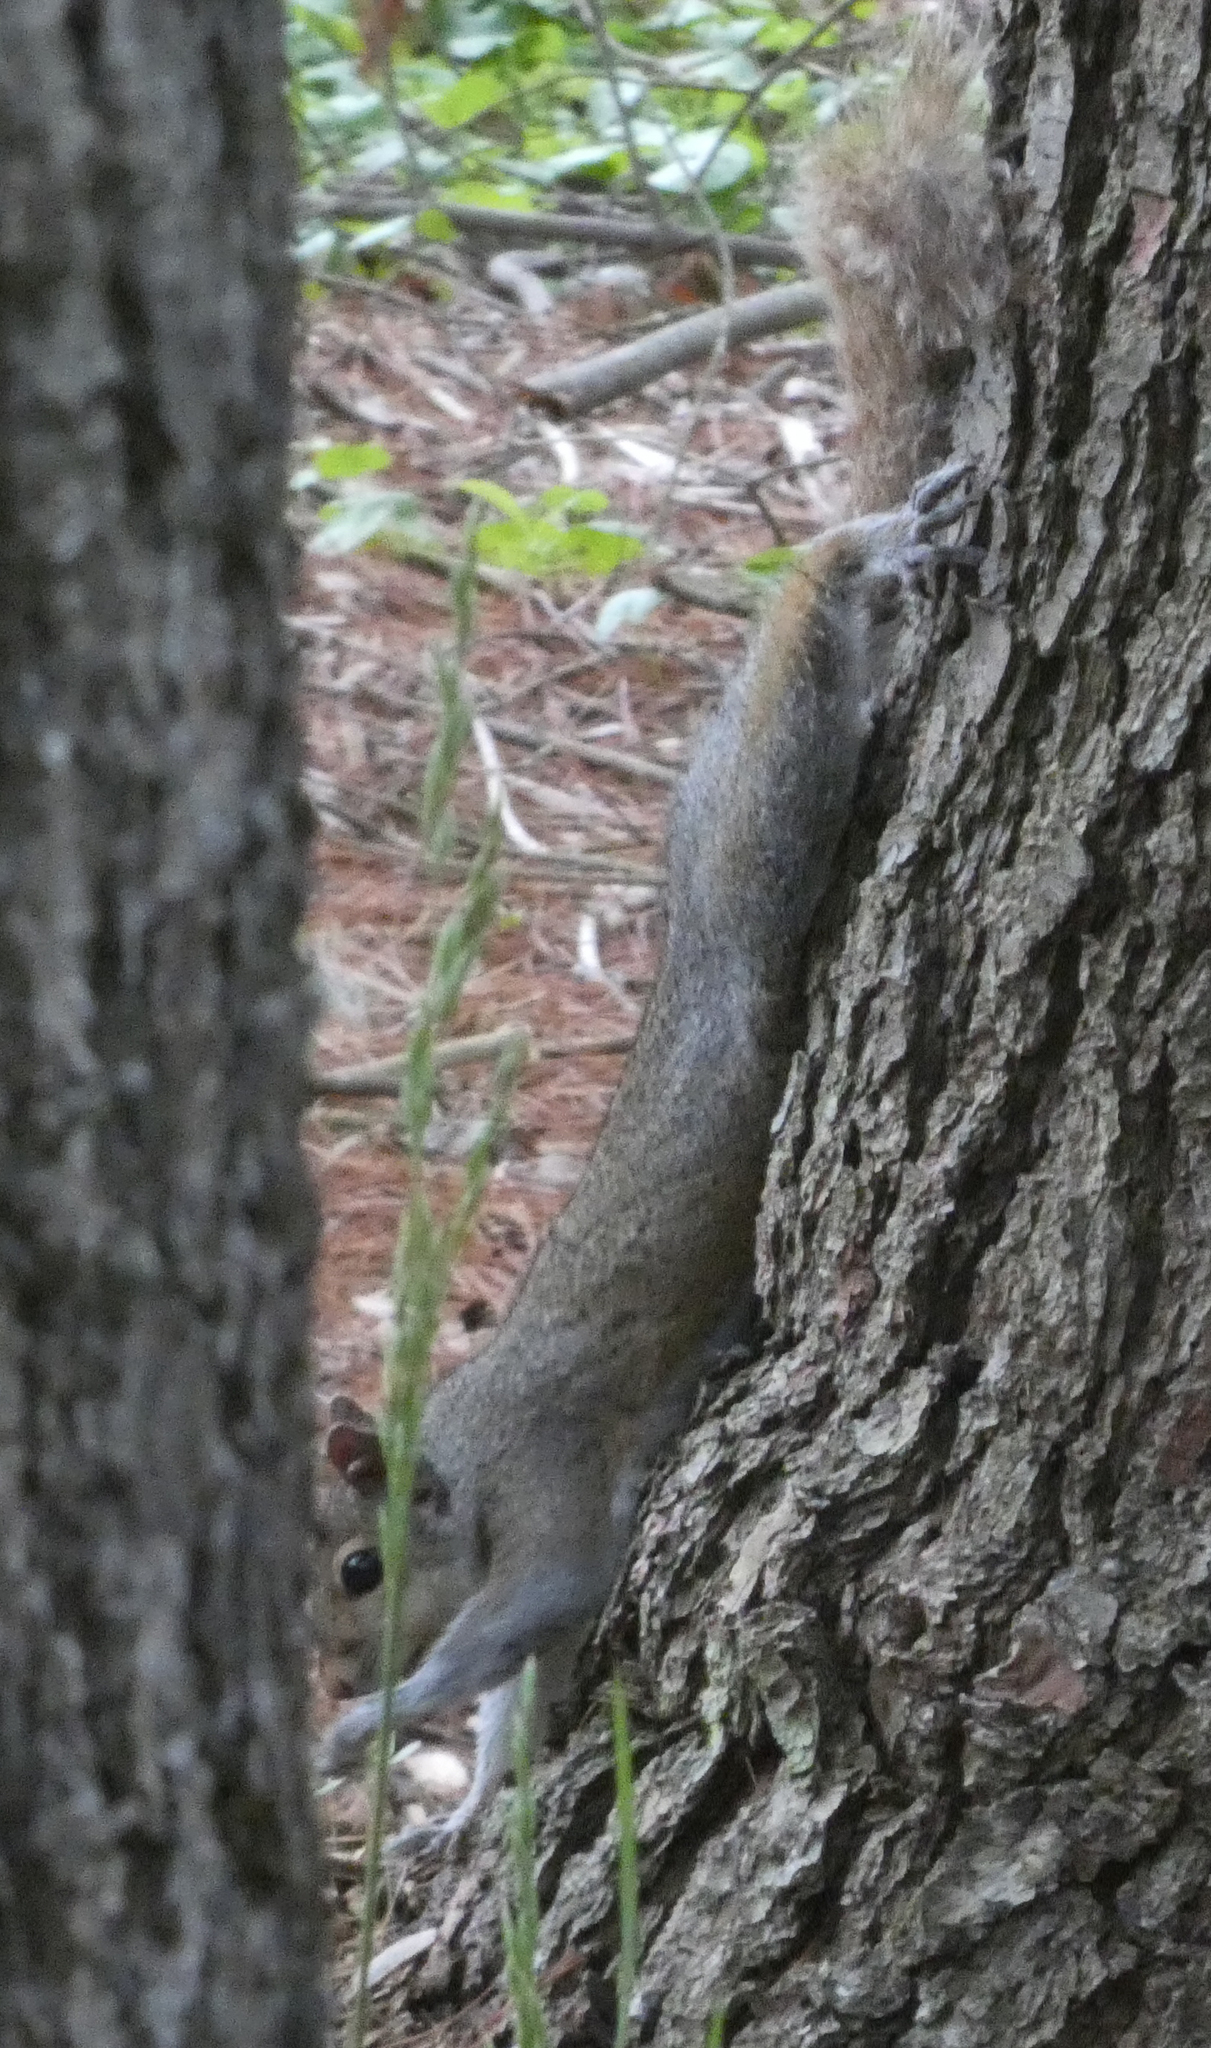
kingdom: Animalia
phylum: Chordata
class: Mammalia
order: Rodentia
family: Sciuridae
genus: Sciurus
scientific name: Sciurus carolinensis
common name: Eastern gray squirrel
